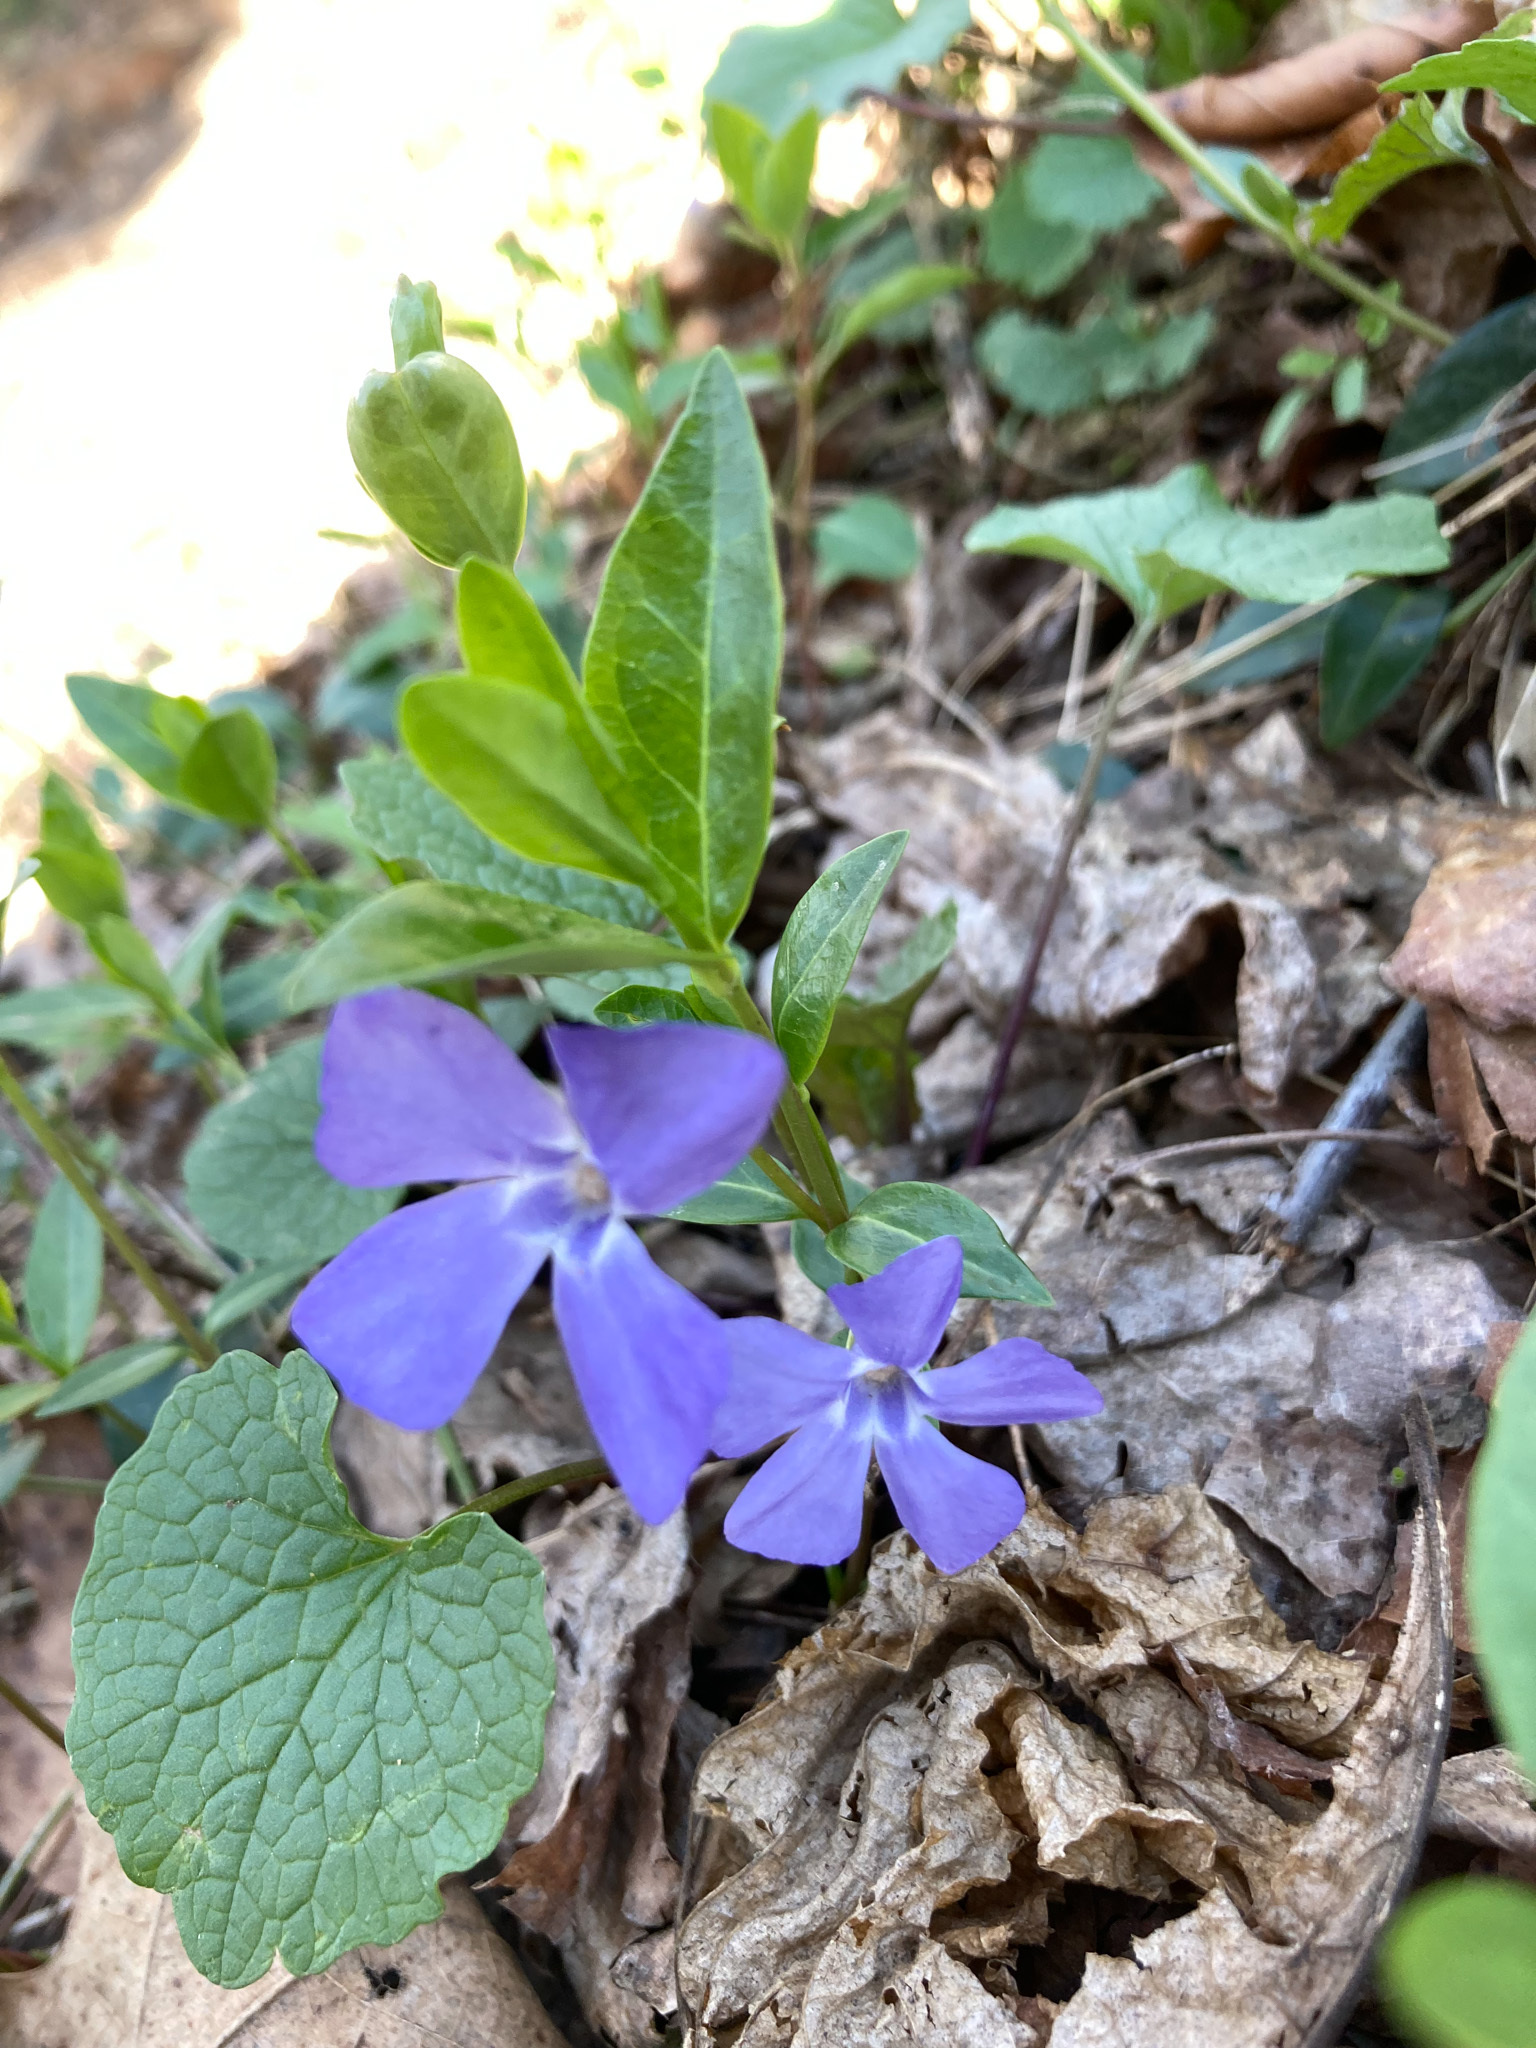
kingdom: Plantae
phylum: Tracheophyta
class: Magnoliopsida
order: Gentianales
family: Apocynaceae
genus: Vinca
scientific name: Vinca minor
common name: Lesser periwinkle
